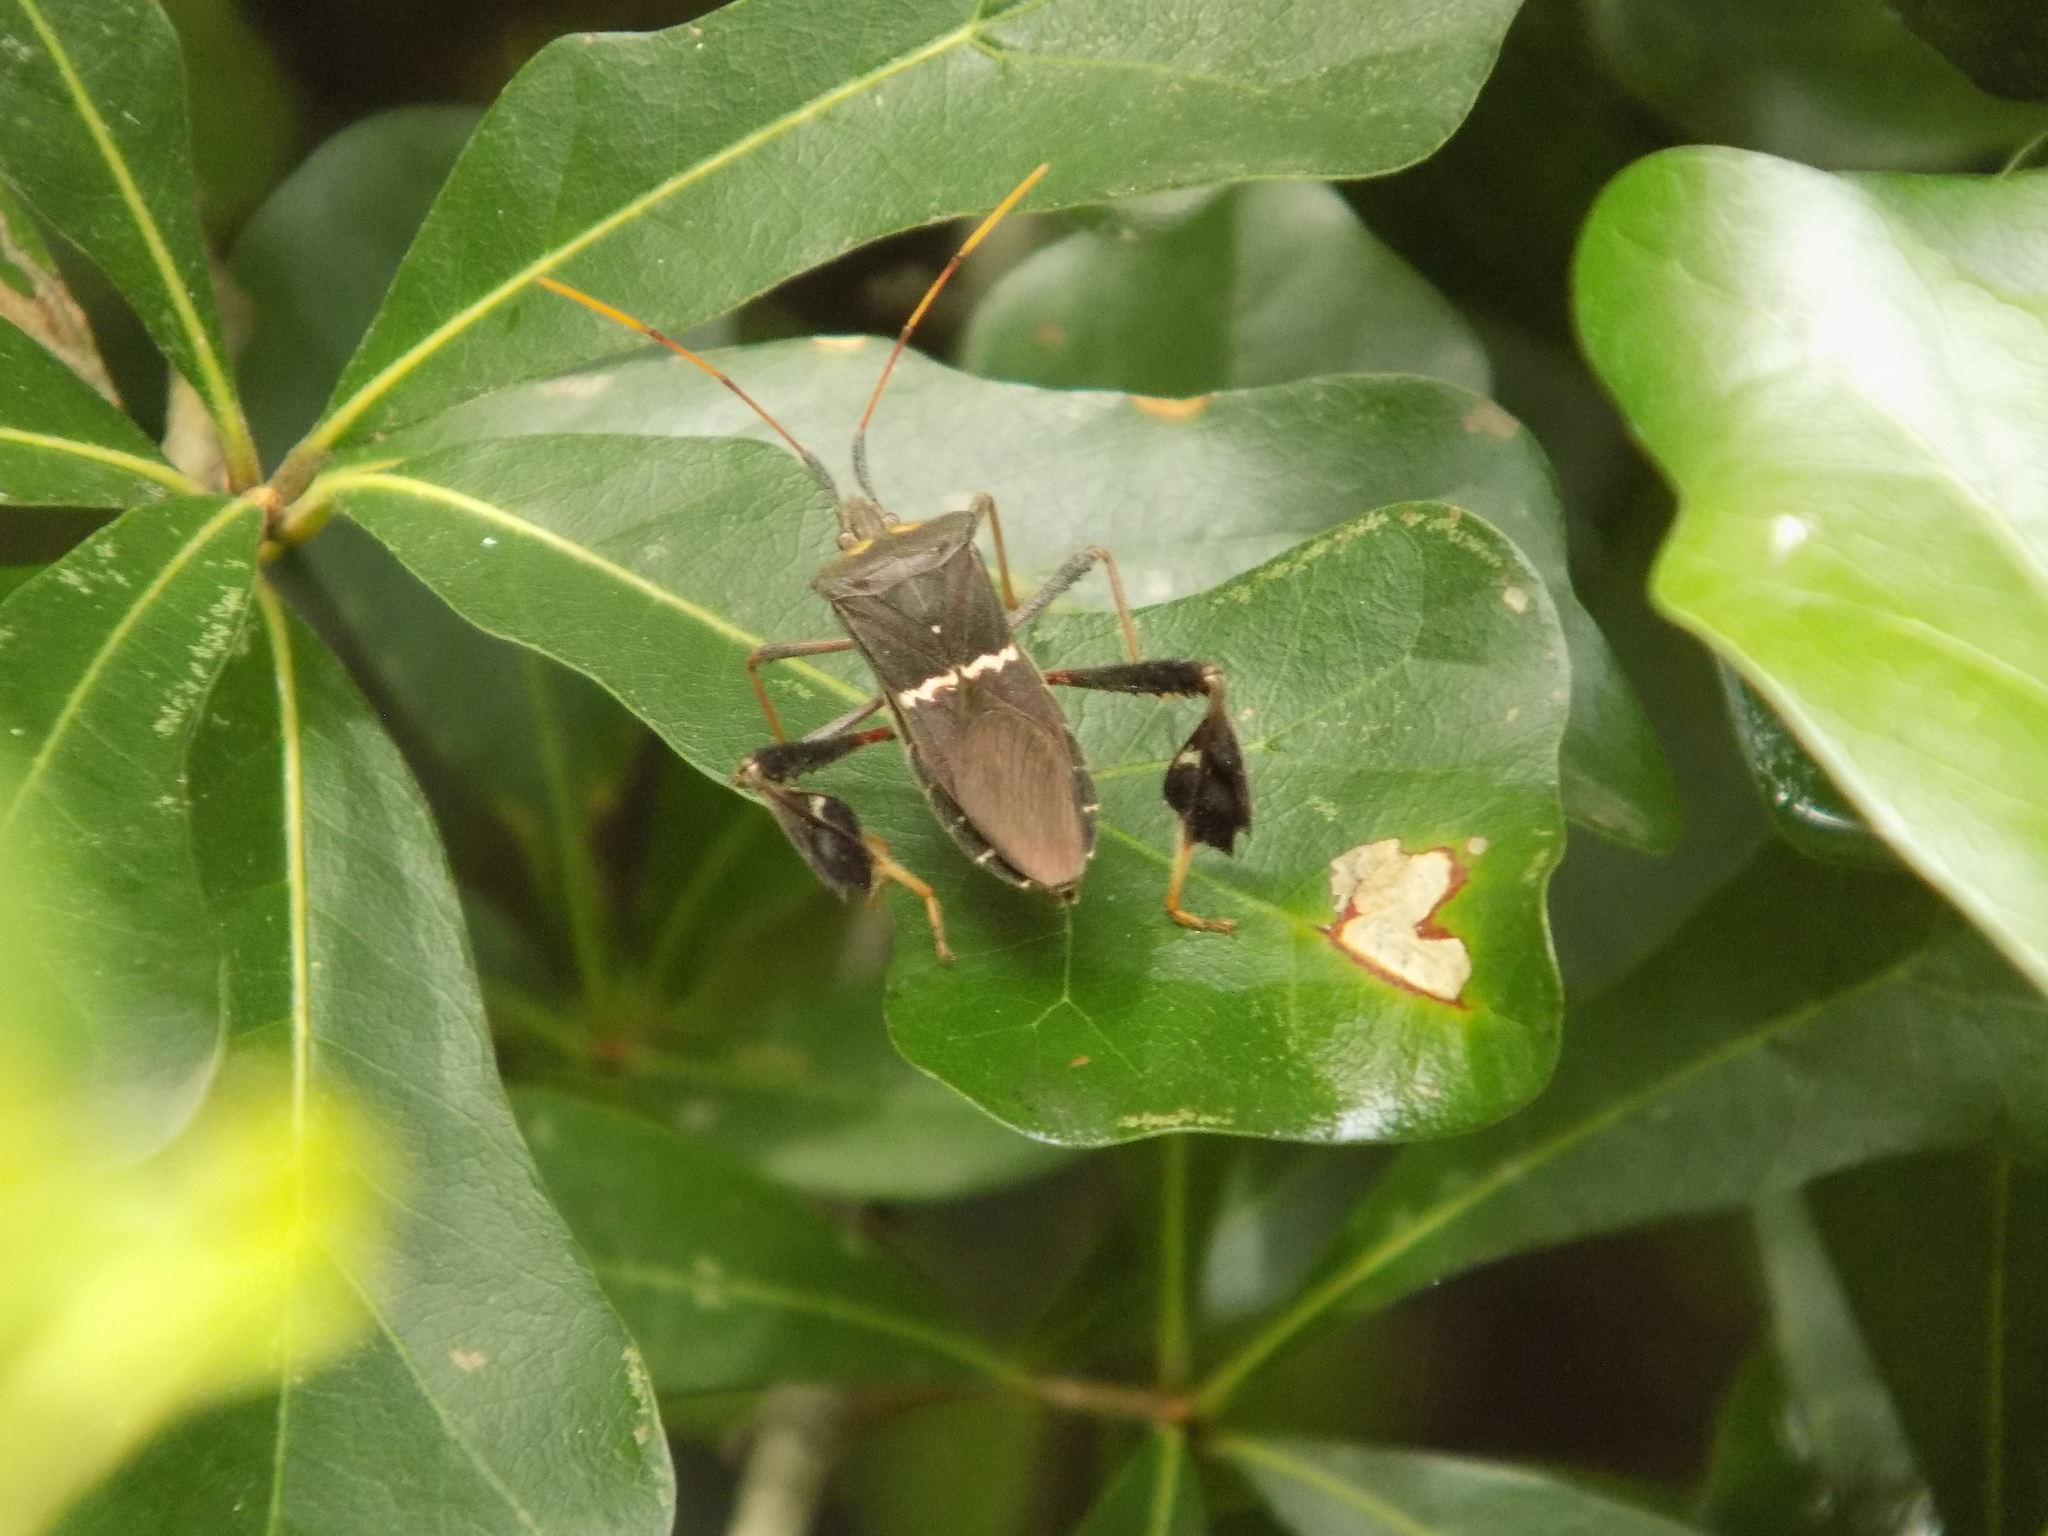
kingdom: Animalia
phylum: Arthropoda
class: Insecta
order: Hemiptera
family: Coreidae
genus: Leptoglossus
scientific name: Leptoglossus zonatus
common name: Large-legged bug
